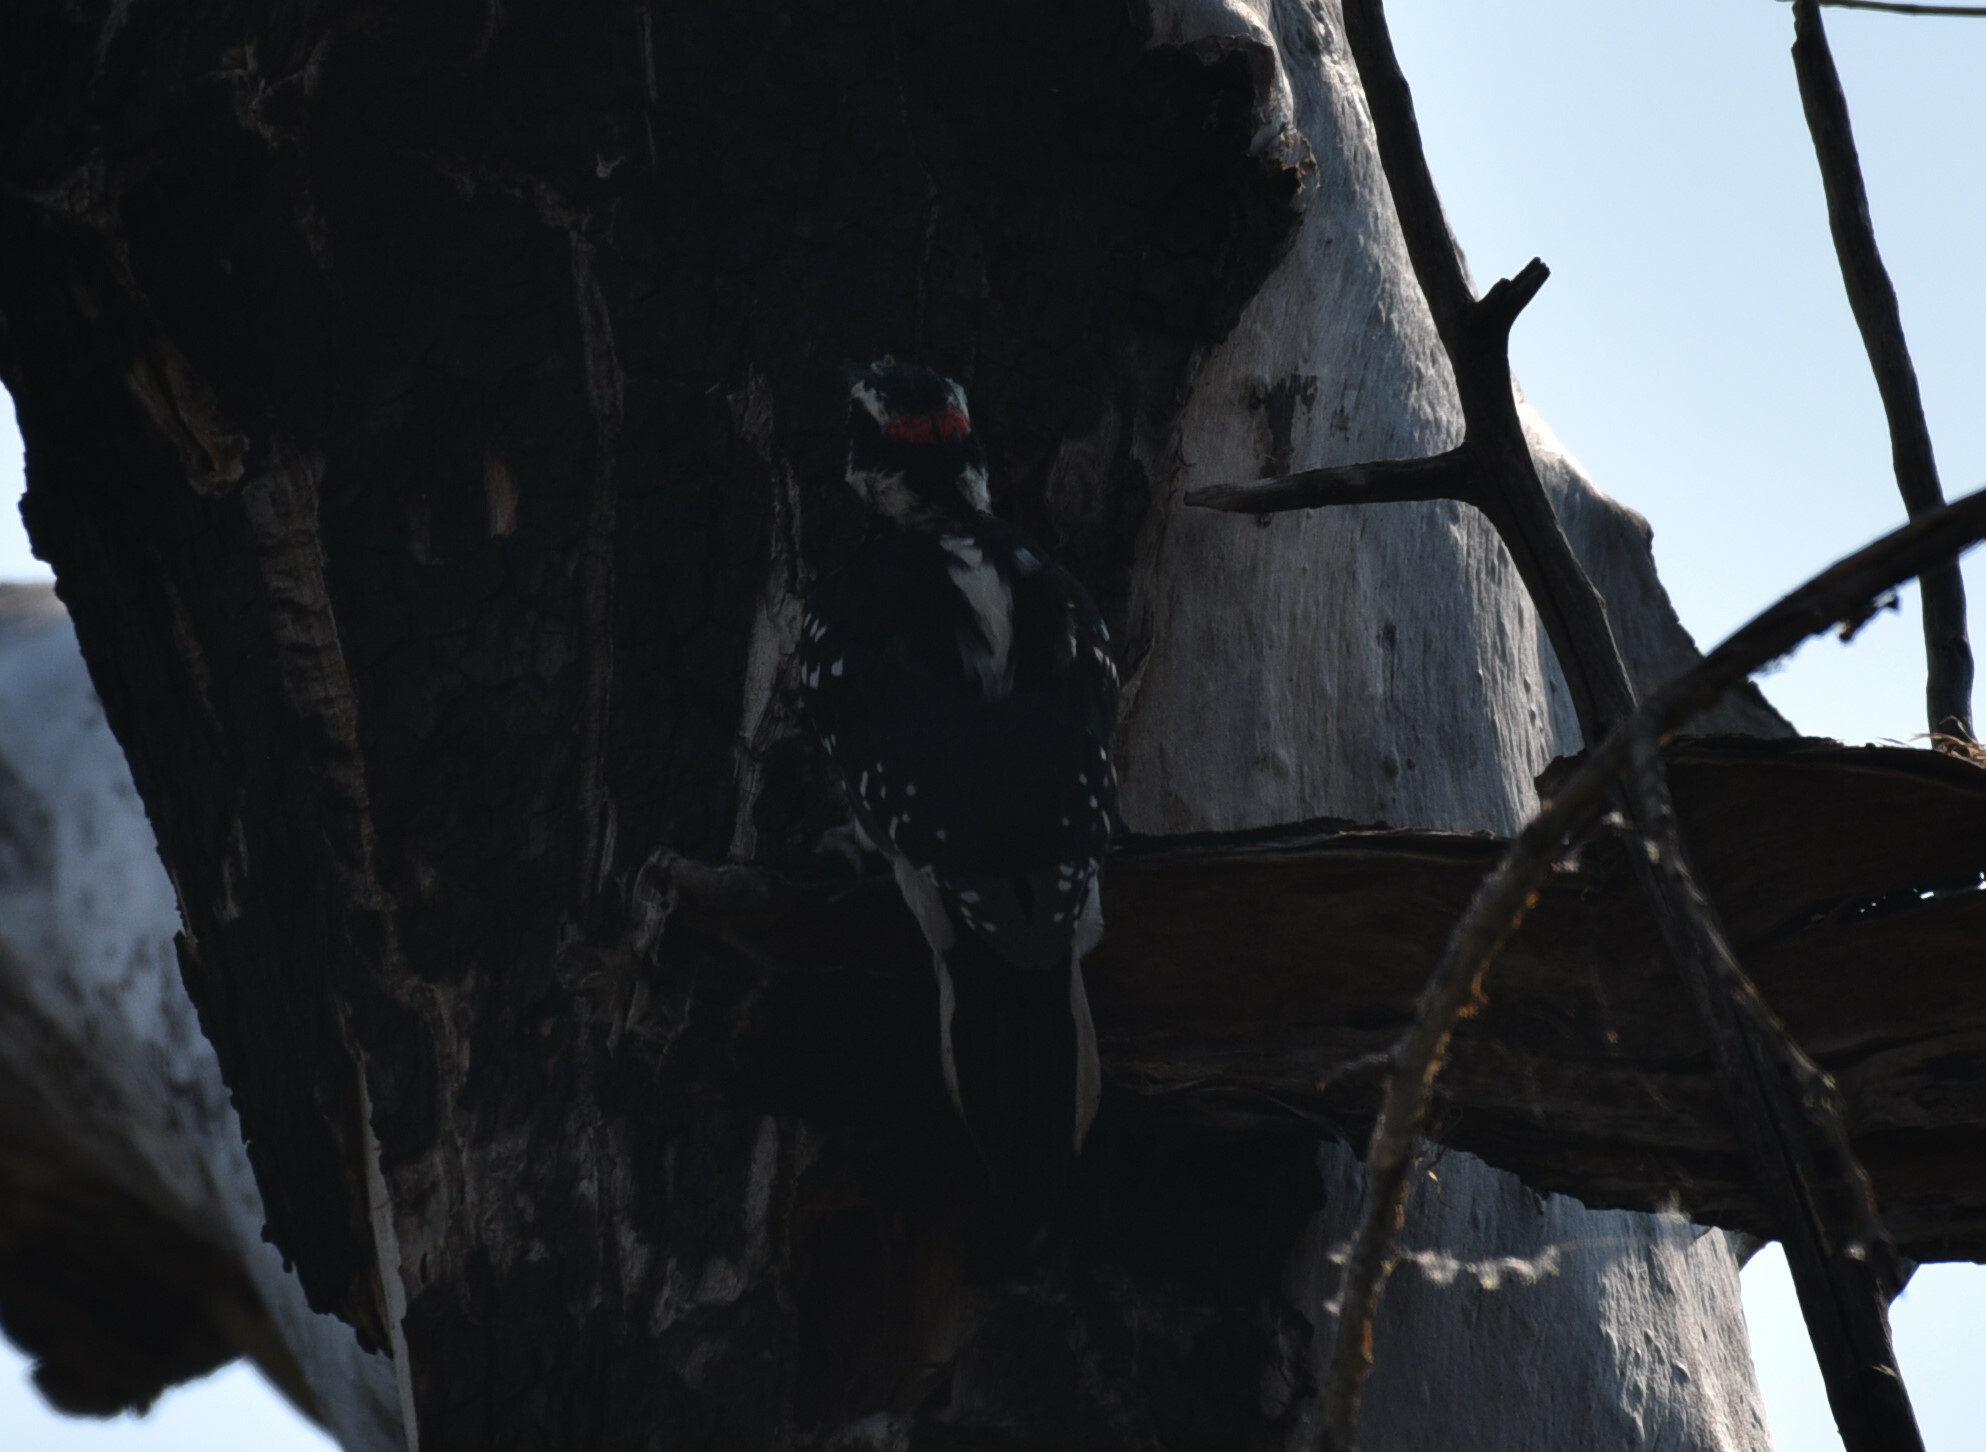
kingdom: Animalia
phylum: Chordata
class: Aves
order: Piciformes
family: Picidae
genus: Leuconotopicus
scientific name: Leuconotopicus villosus
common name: Hairy woodpecker
